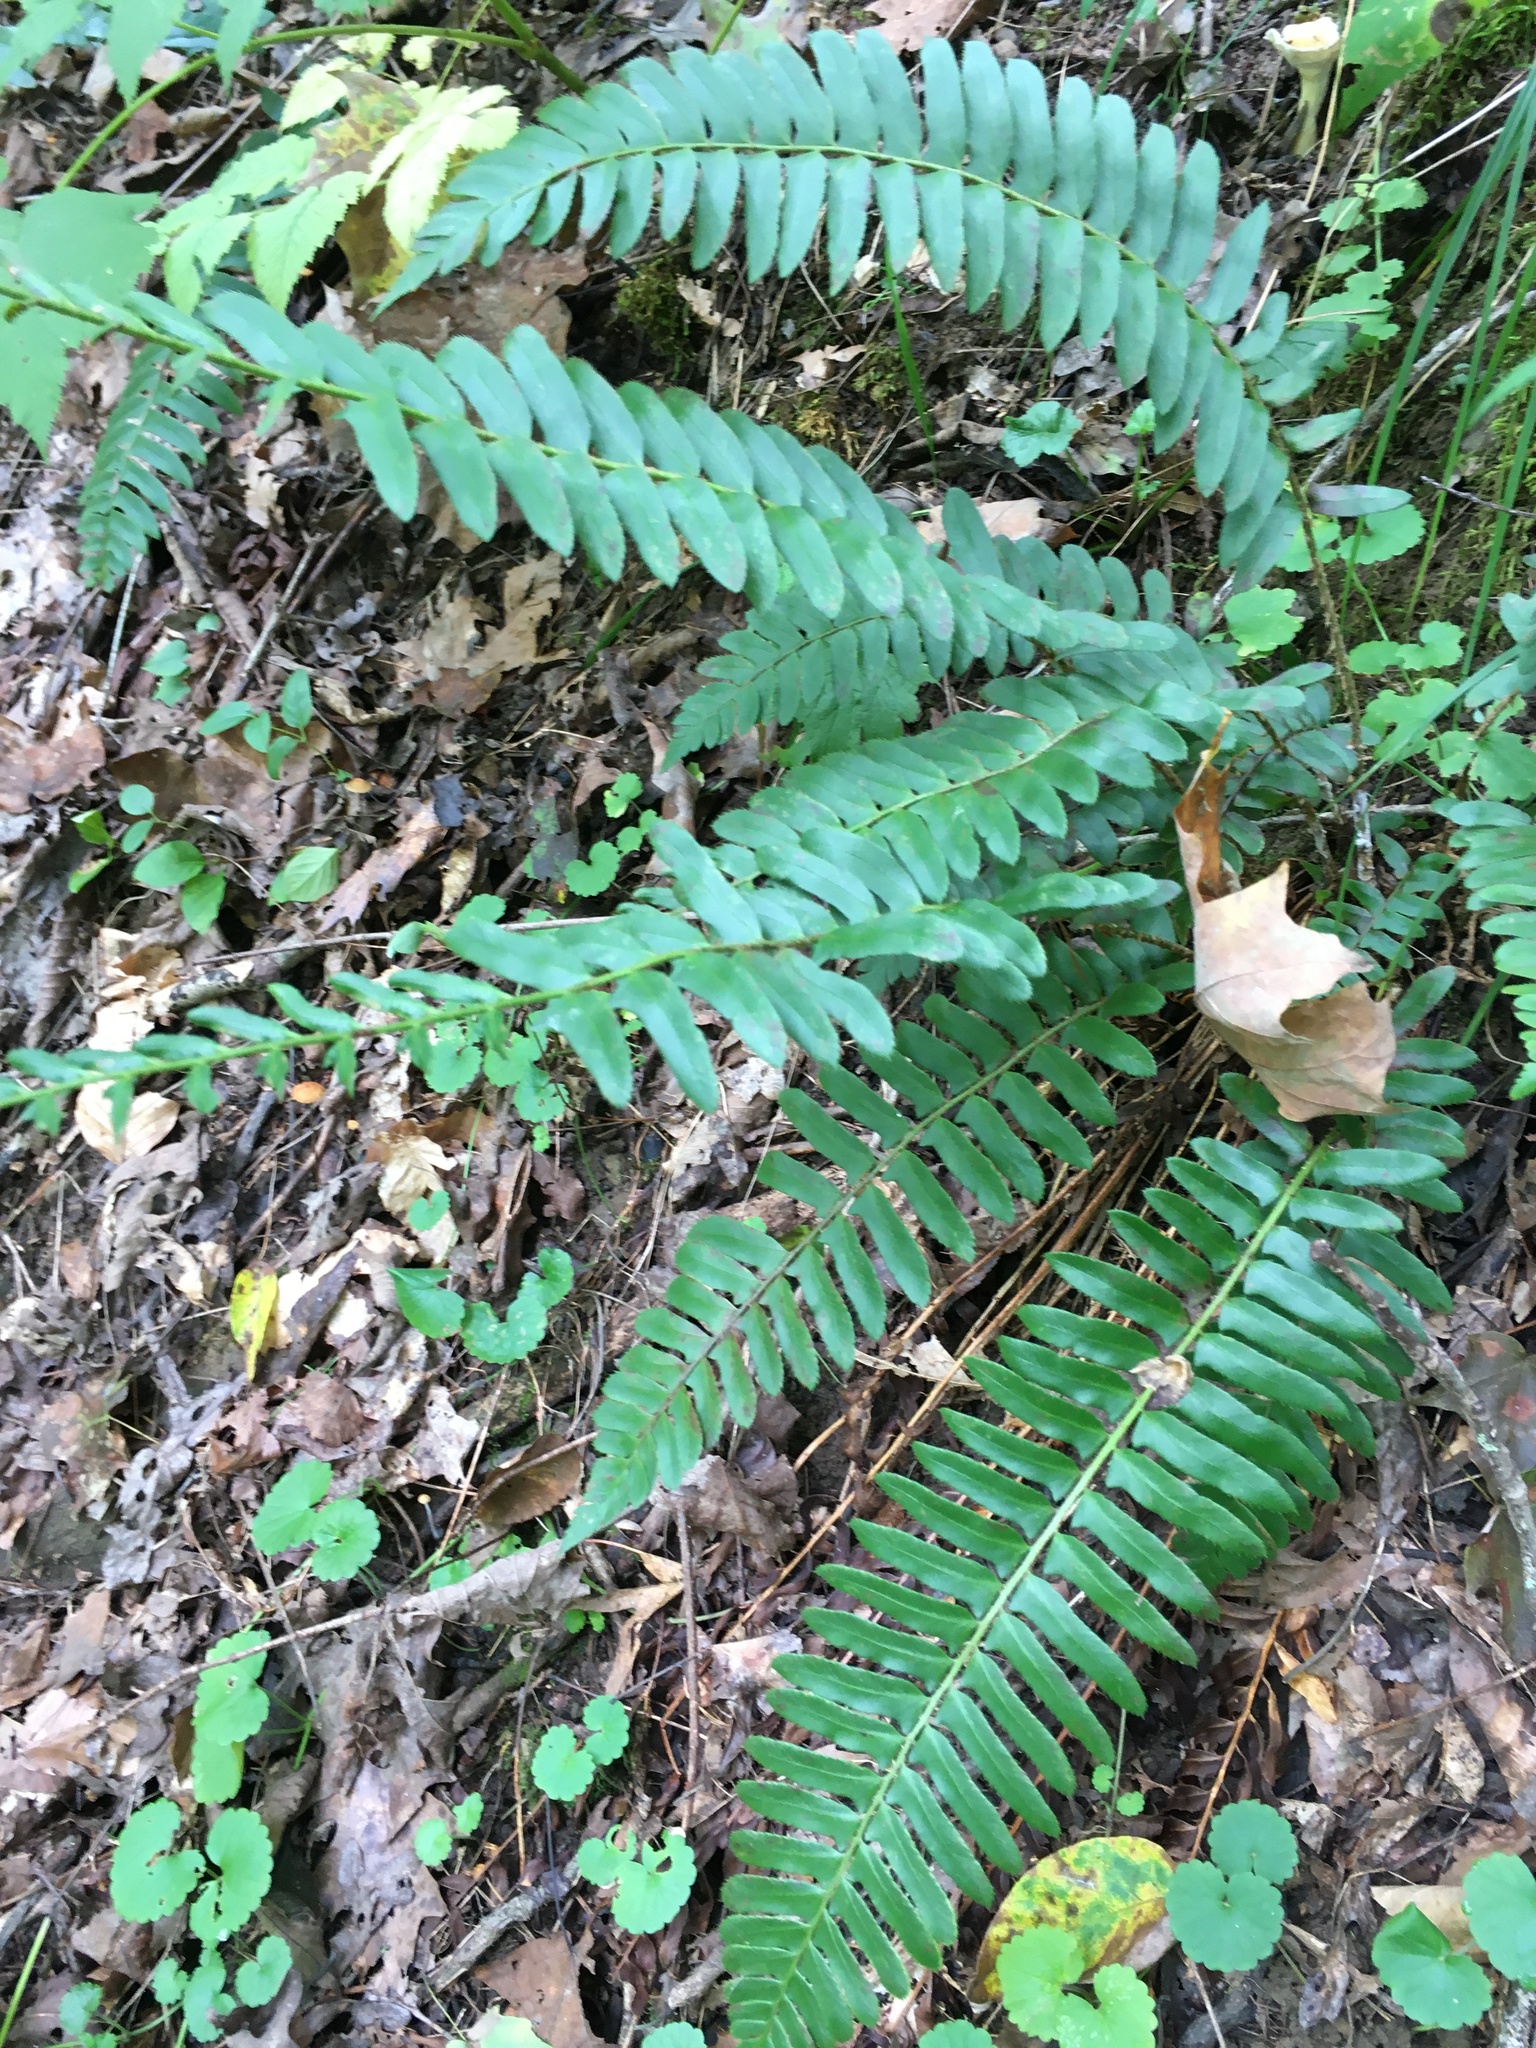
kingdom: Plantae
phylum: Tracheophyta
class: Polypodiopsida
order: Polypodiales
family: Dryopteridaceae
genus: Polystichum
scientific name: Polystichum acrostichoides
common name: Christmas fern
